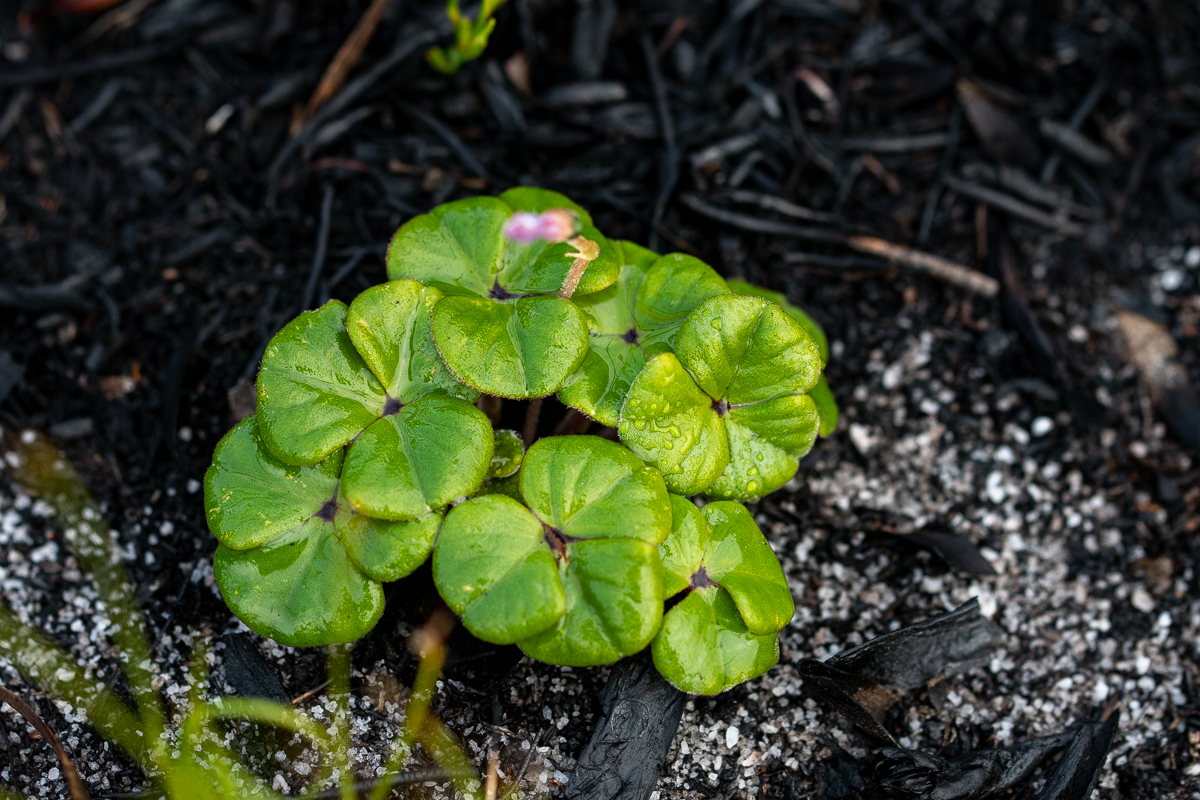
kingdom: Plantae
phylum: Tracheophyta
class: Magnoliopsida
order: Oxalidales
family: Oxalidaceae
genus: Oxalis
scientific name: Oxalis truncatula
